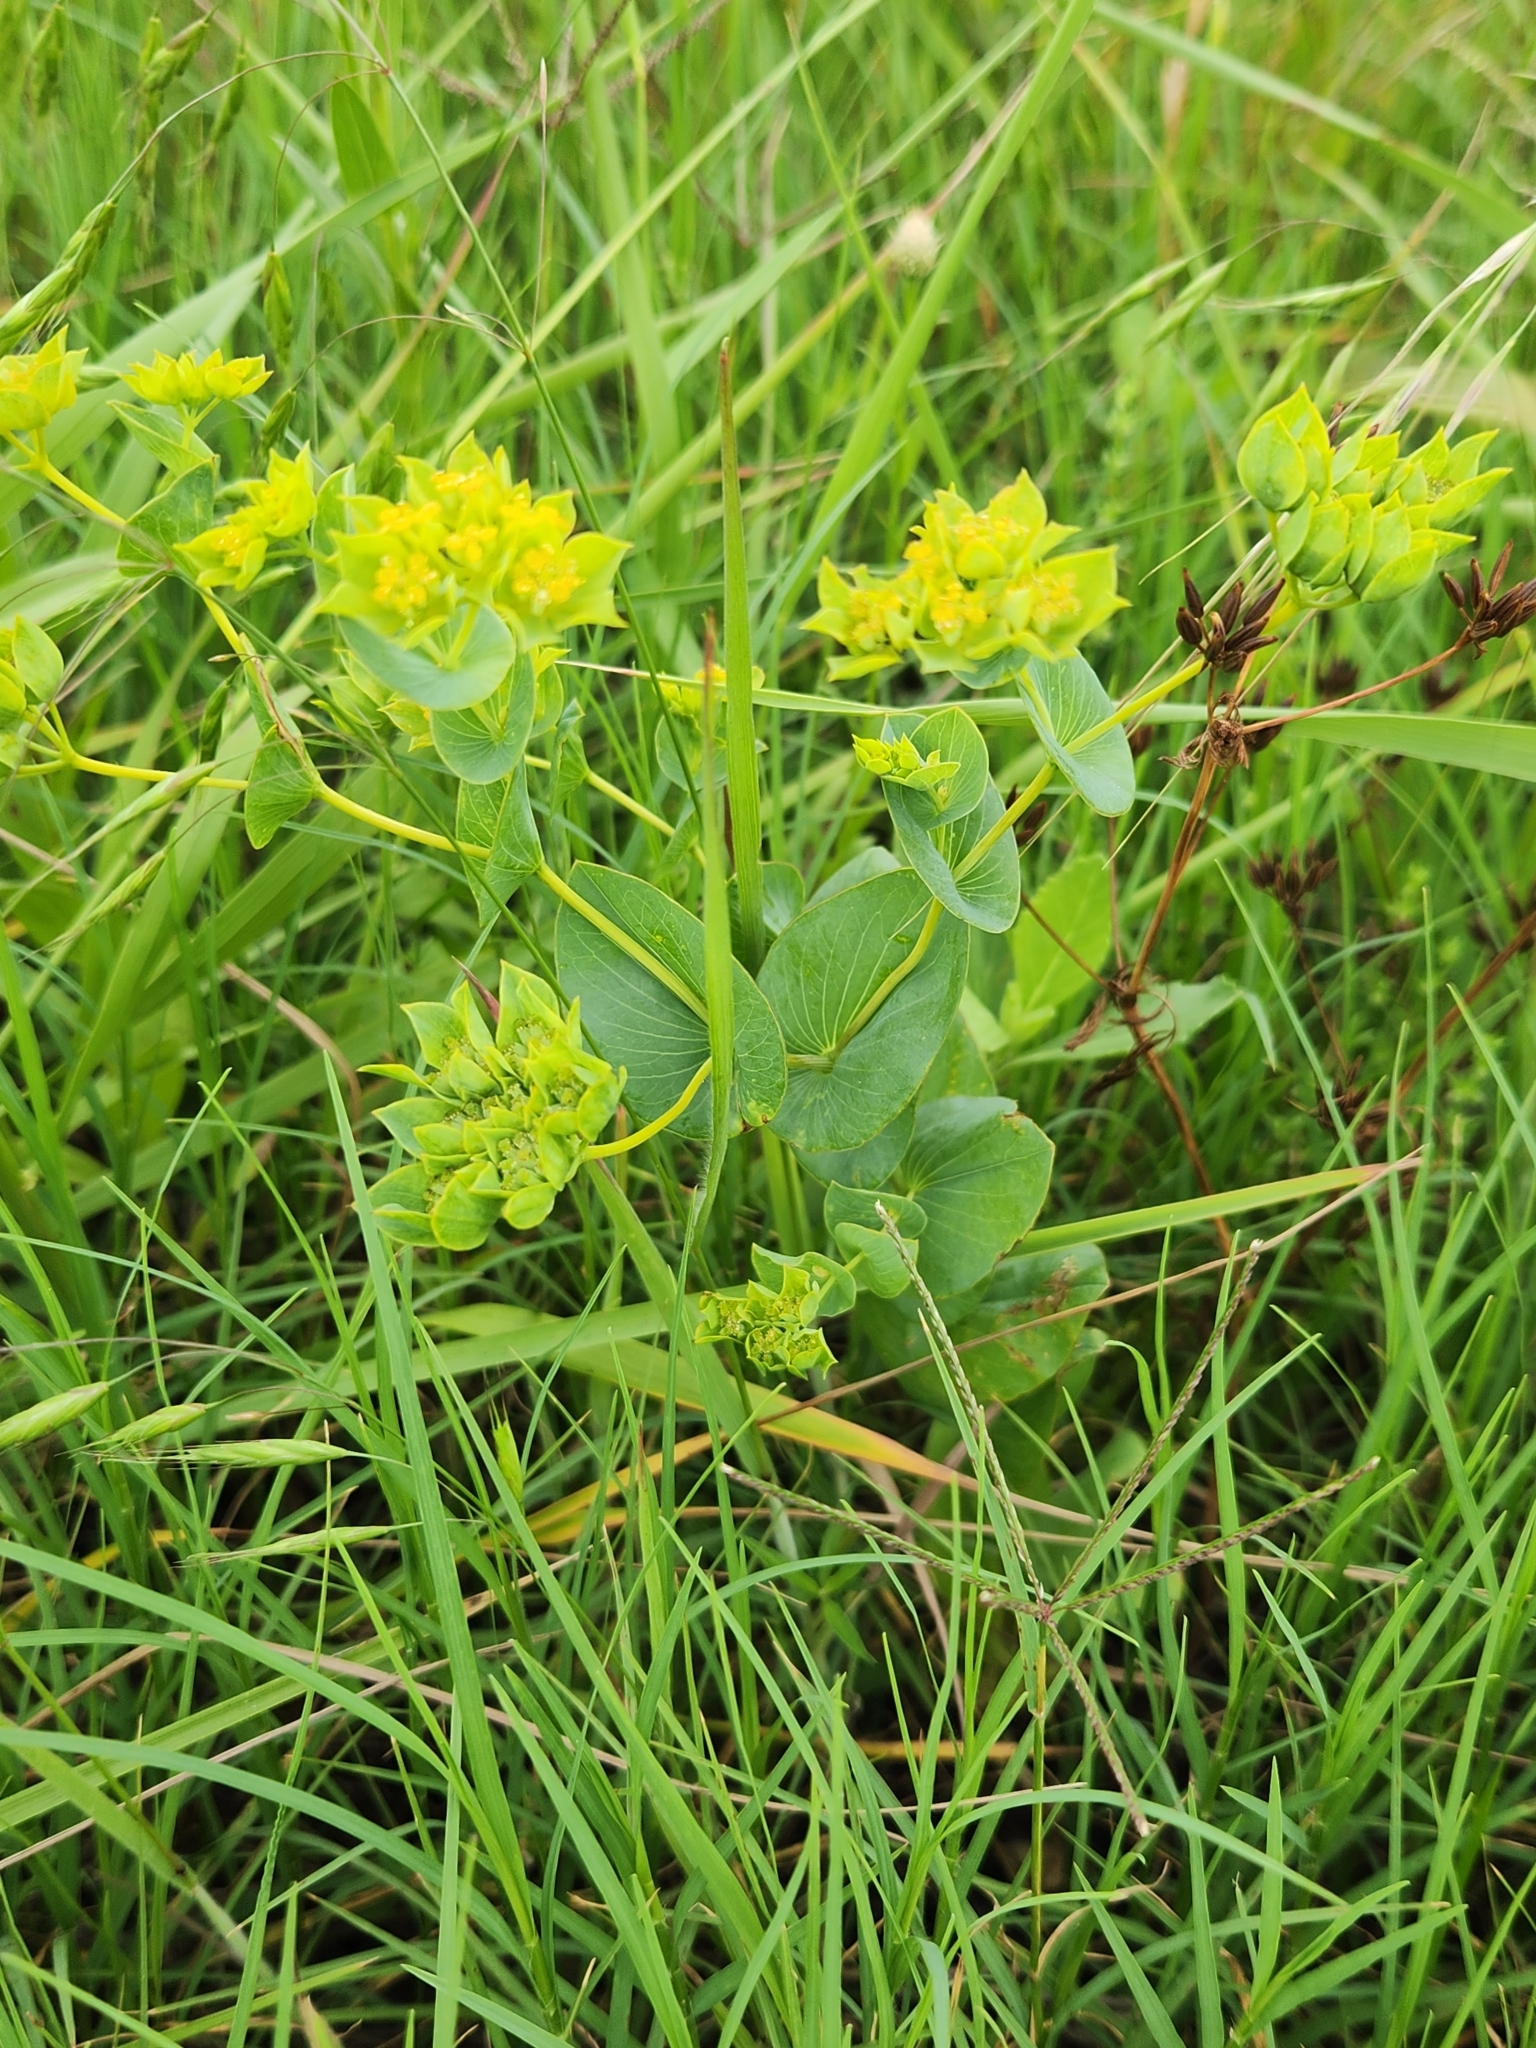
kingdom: Plantae
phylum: Tracheophyta
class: Magnoliopsida
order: Apiales
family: Apiaceae
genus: Bupleurum
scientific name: Bupleurum rotundifolium
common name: Thorow-wax
